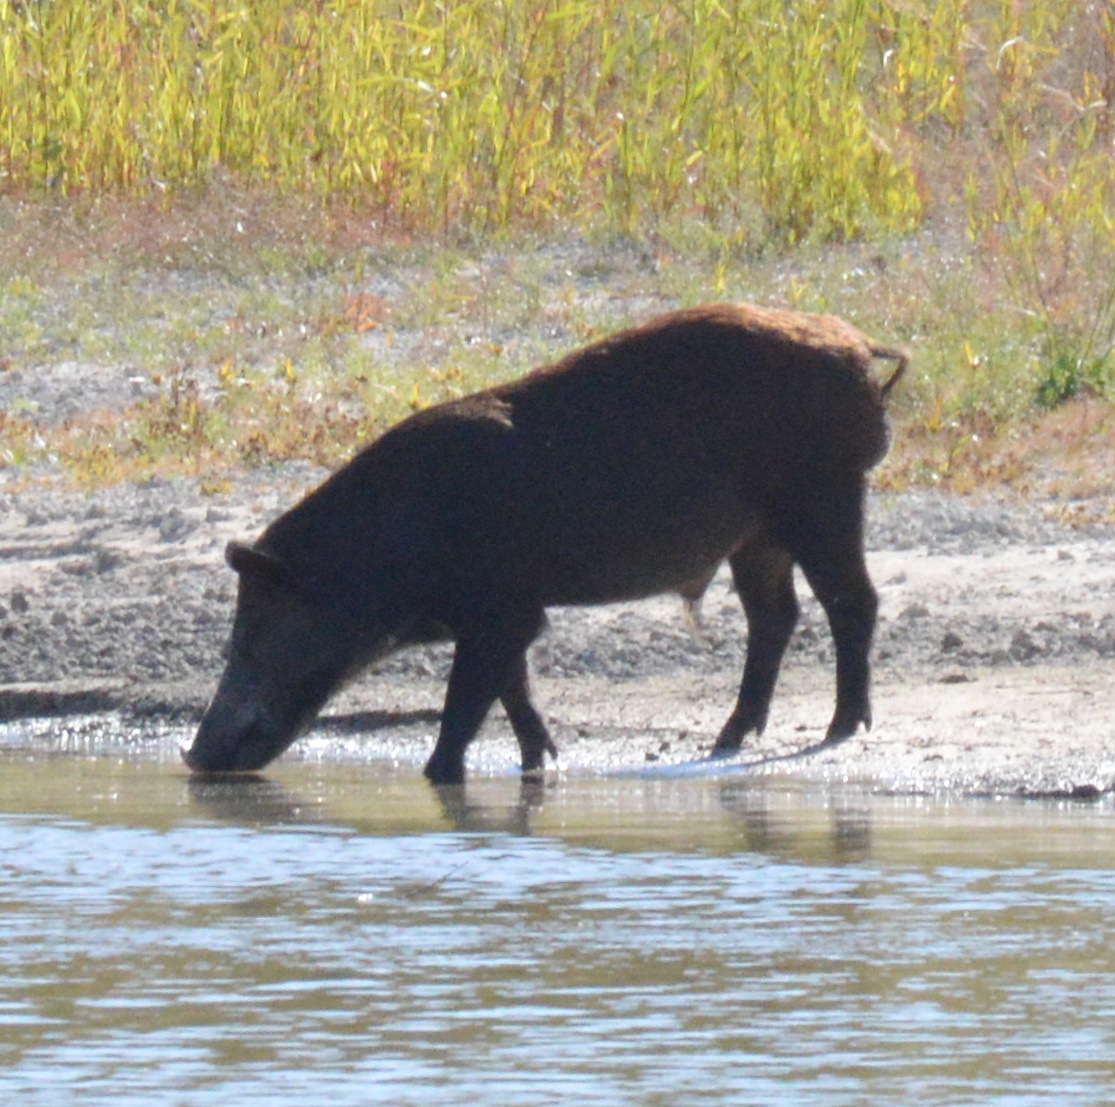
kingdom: Animalia
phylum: Chordata
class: Mammalia
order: Artiodactyla
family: Suidae
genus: Sus
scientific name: Sus scrofa
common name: Wild boar
